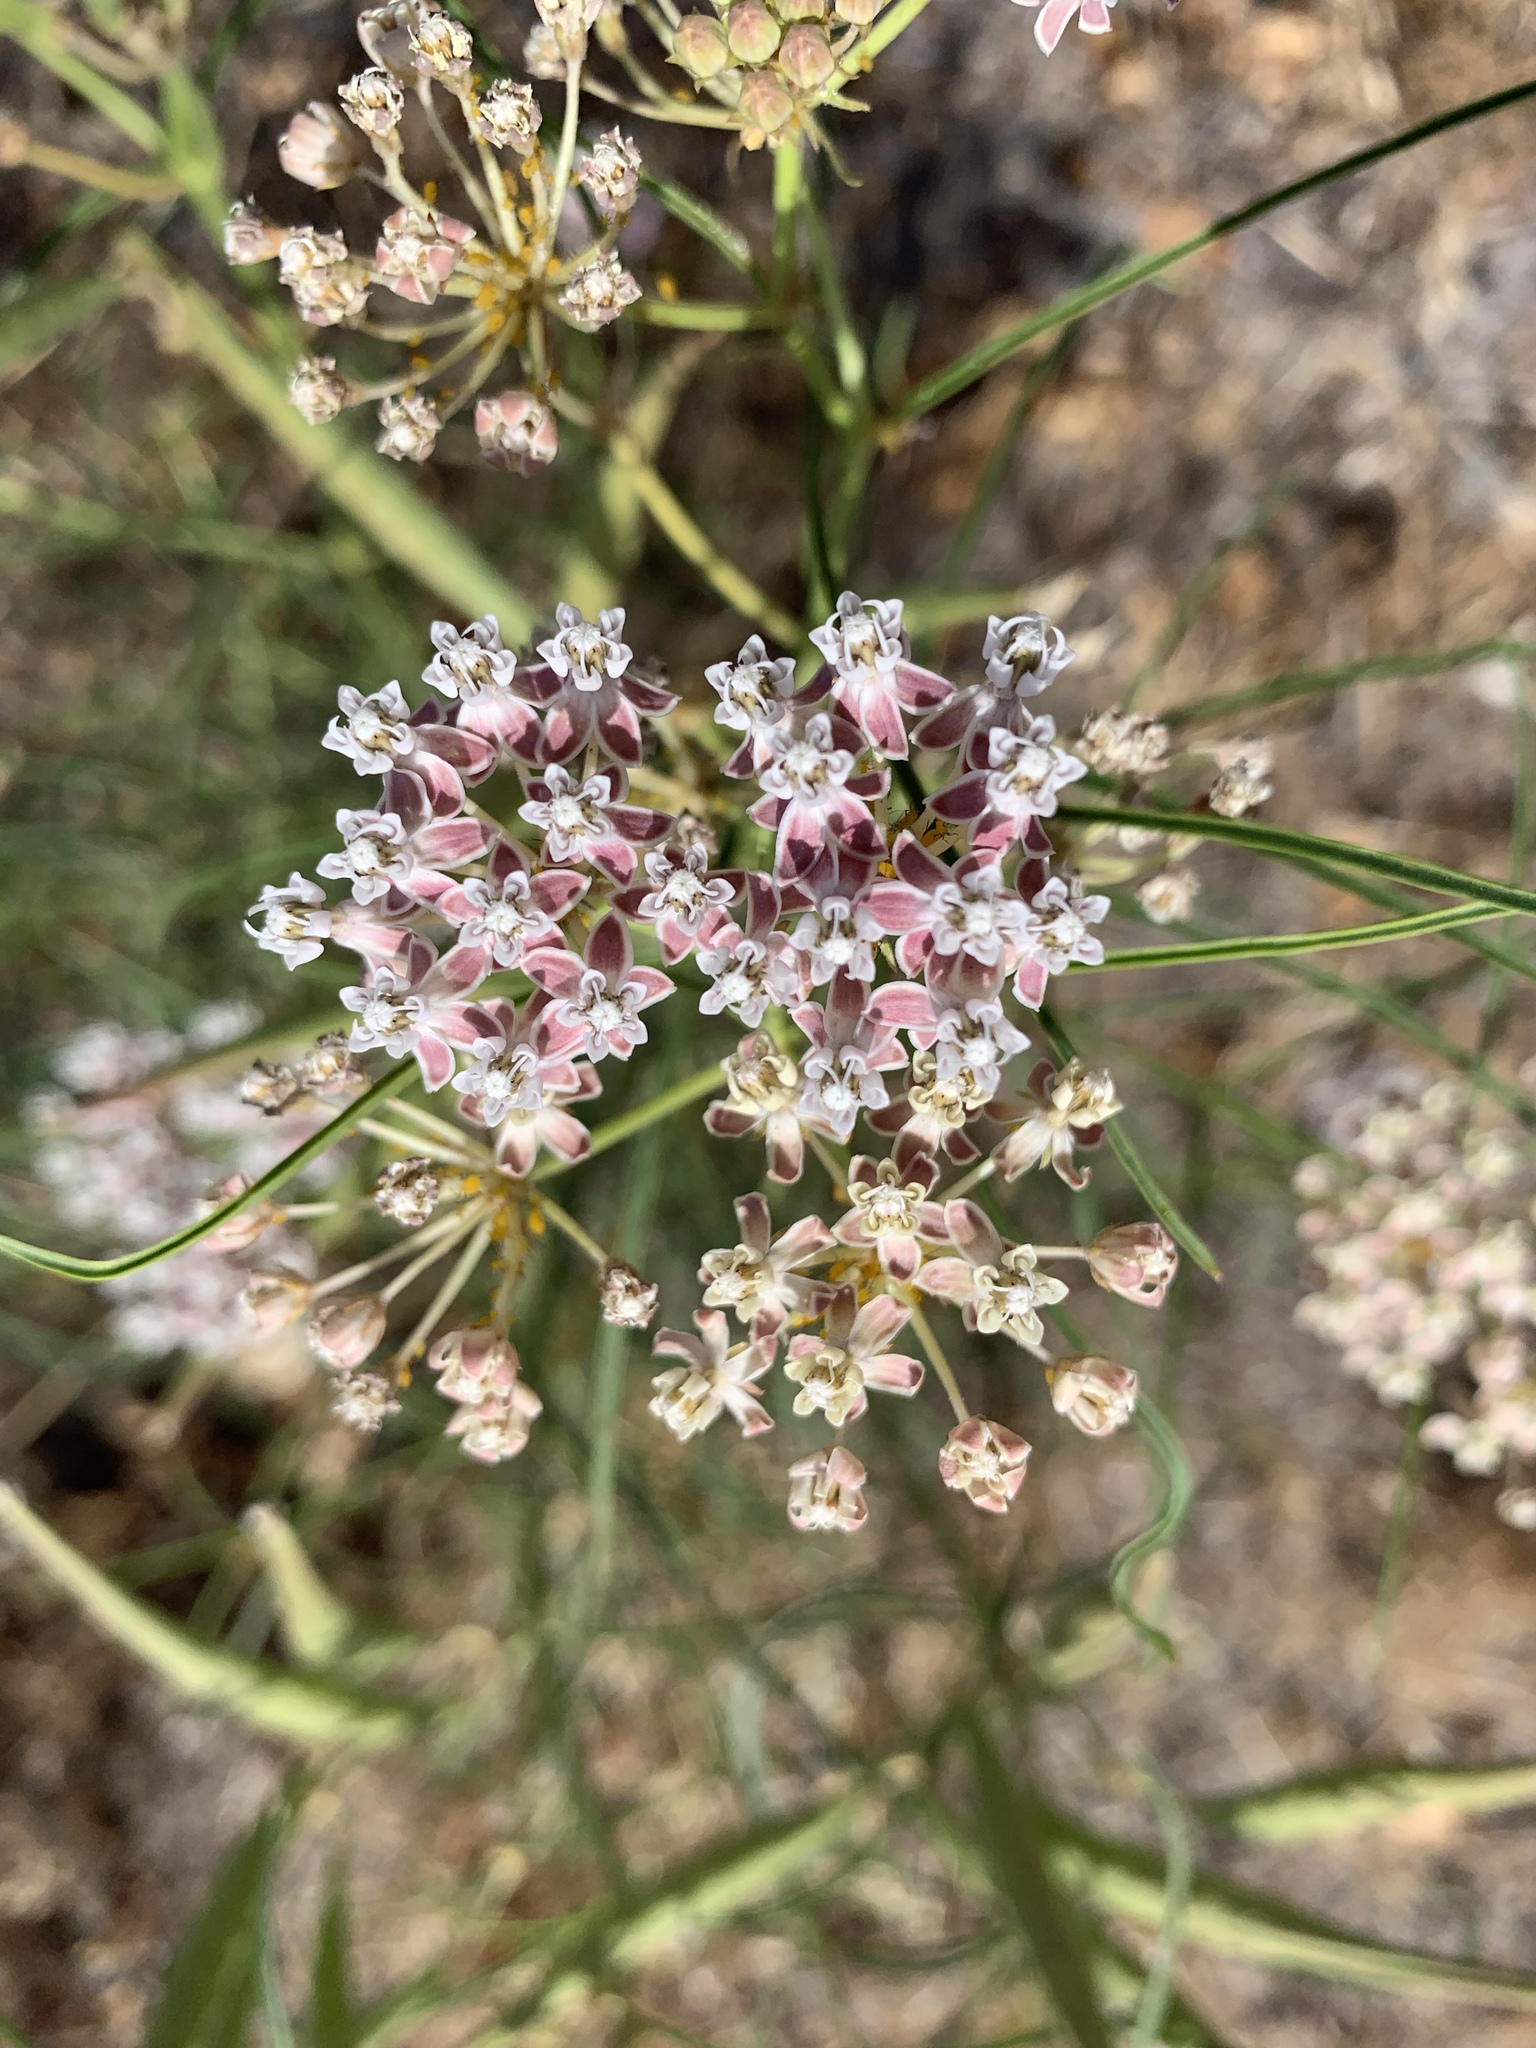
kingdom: Plantae
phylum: Tracheophyta
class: Magnoliopsida
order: Gentianales
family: Apocynaceae
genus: Asclepias
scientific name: Asclepias fascicularis
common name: Mexican milkweed
